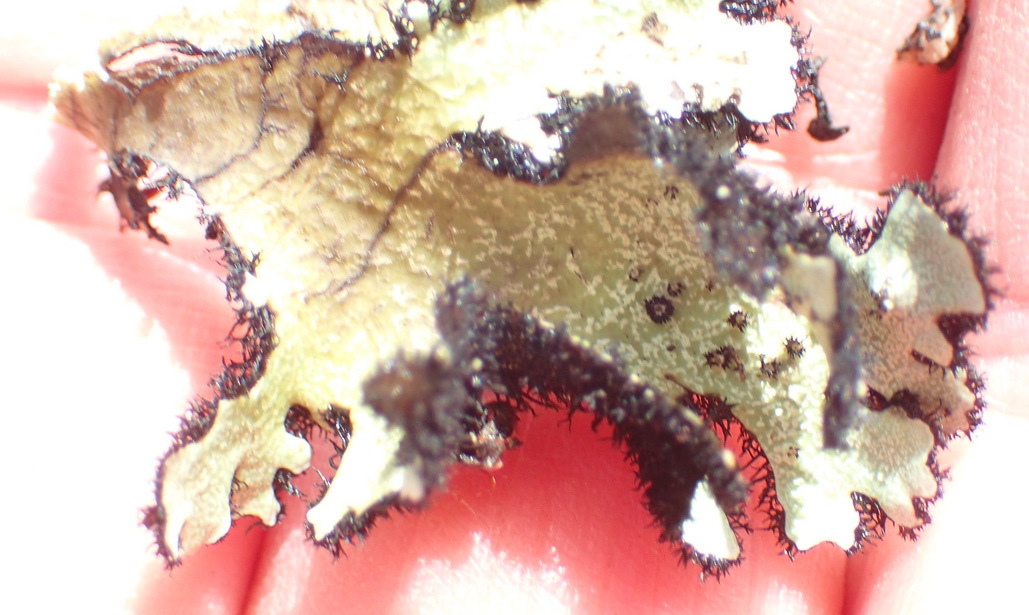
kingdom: Fungi
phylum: Ascomycota
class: Lecanoromycetes
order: Lecanorales
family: Parmeliaceae
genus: Xanthoparmelia
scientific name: Xanthoparmelia hottentotta
